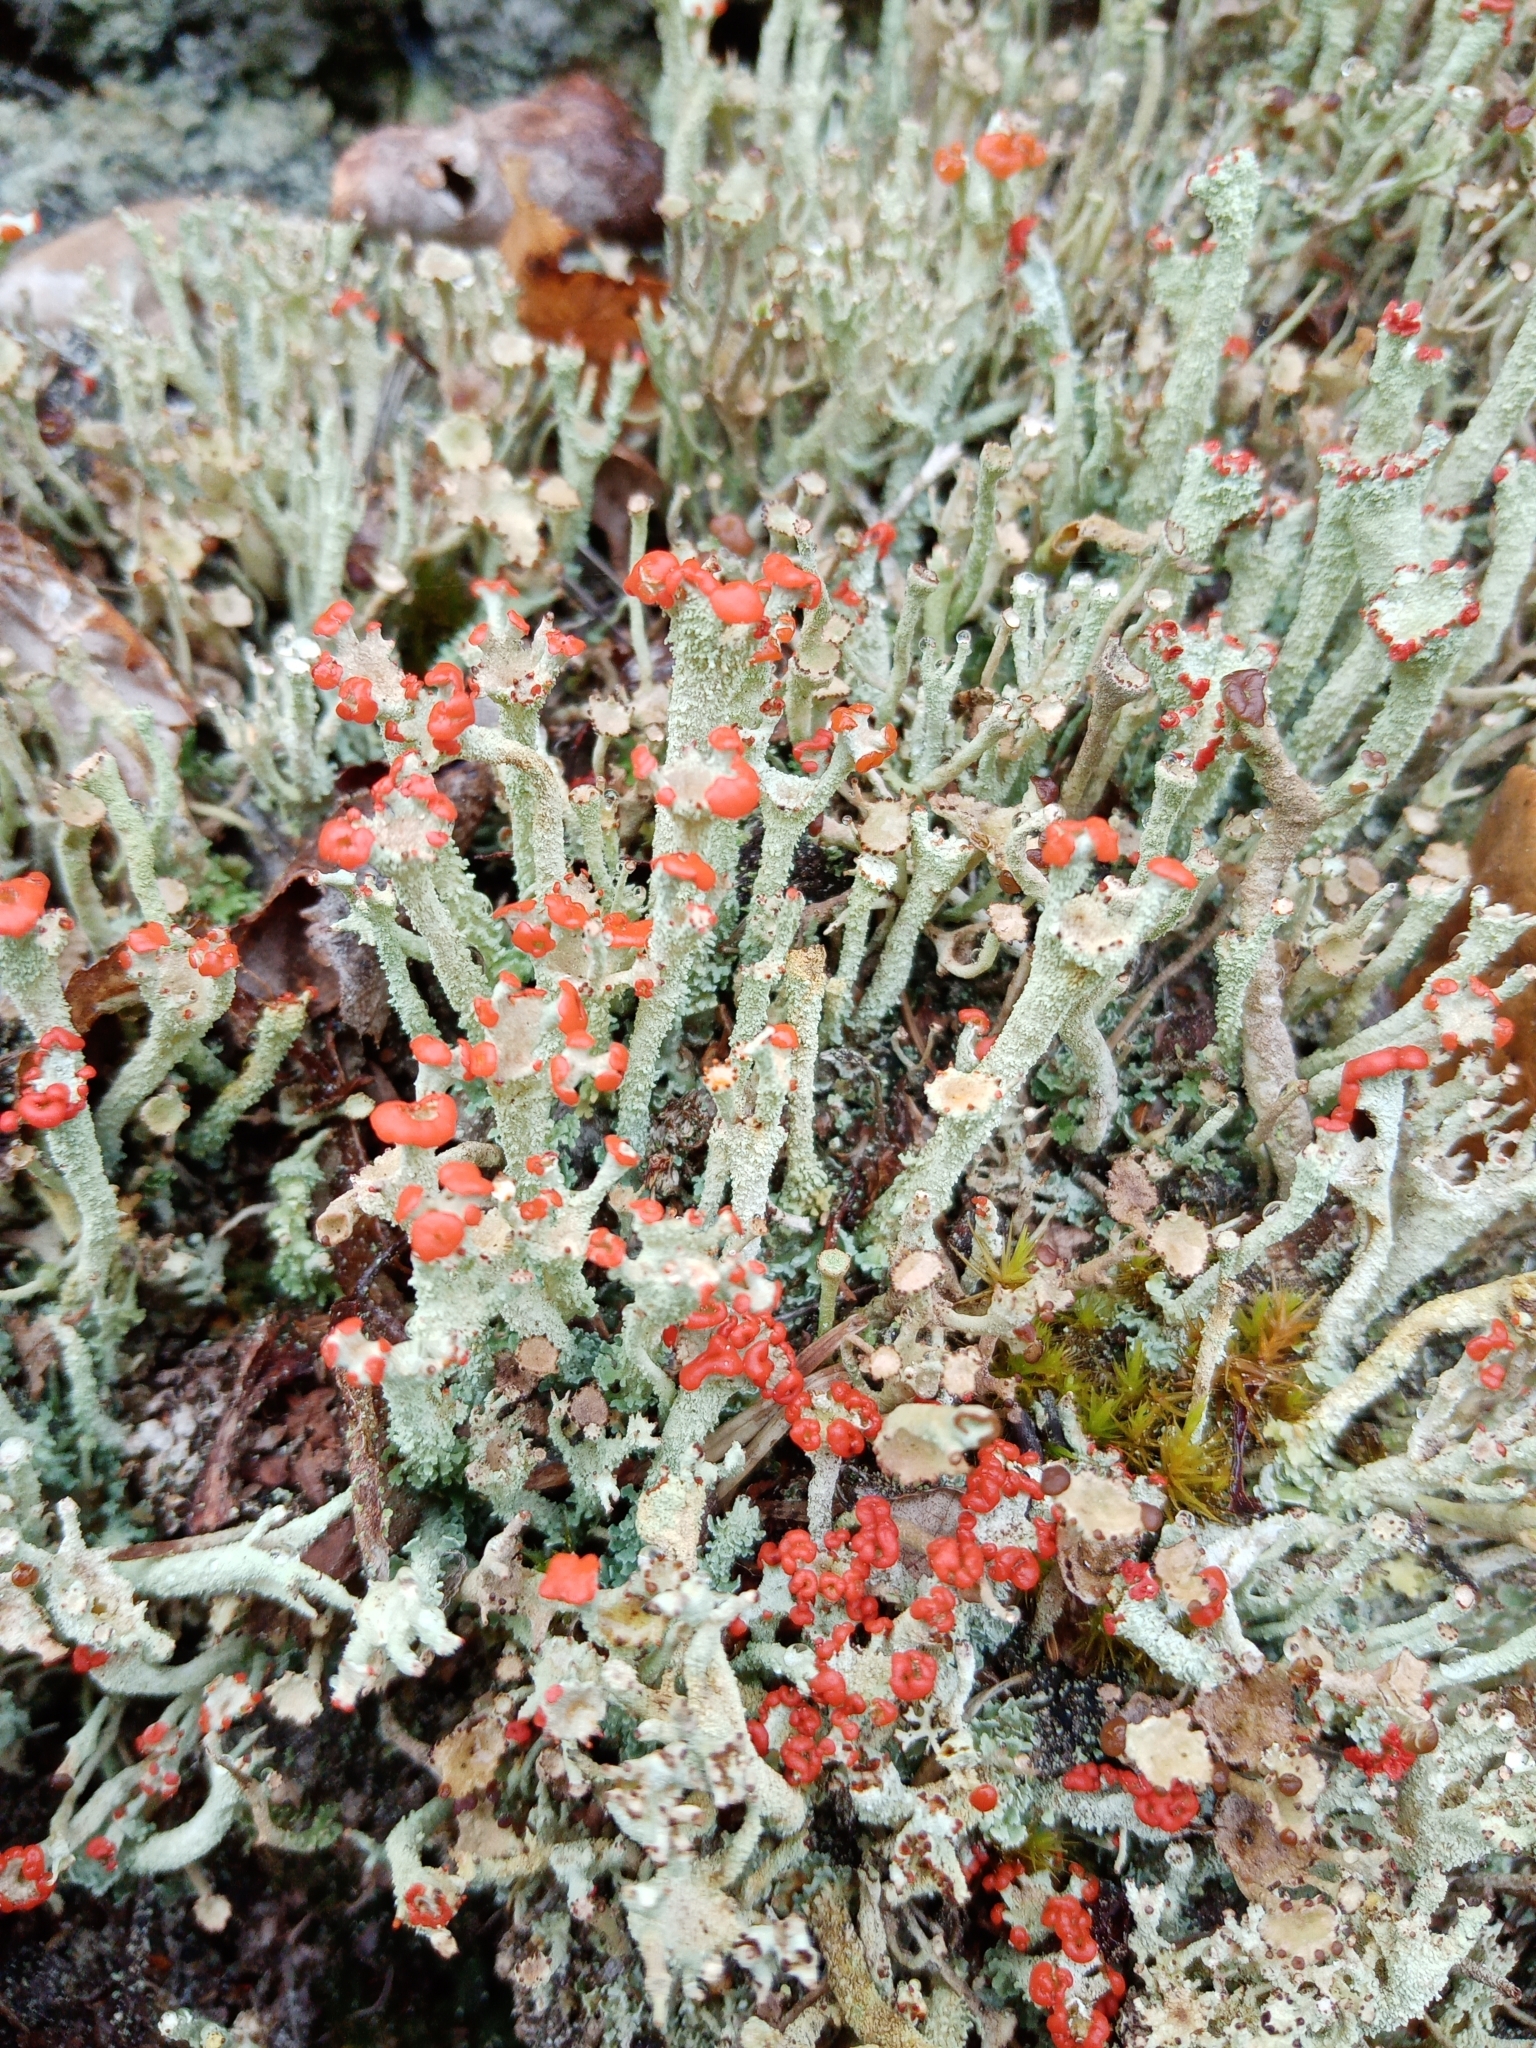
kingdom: Fungi
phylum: Ascomycota
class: Lecanoromycetes
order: Lecanorales
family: Cladoniaceae
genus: Cladonia
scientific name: Cladonia polydactyla
